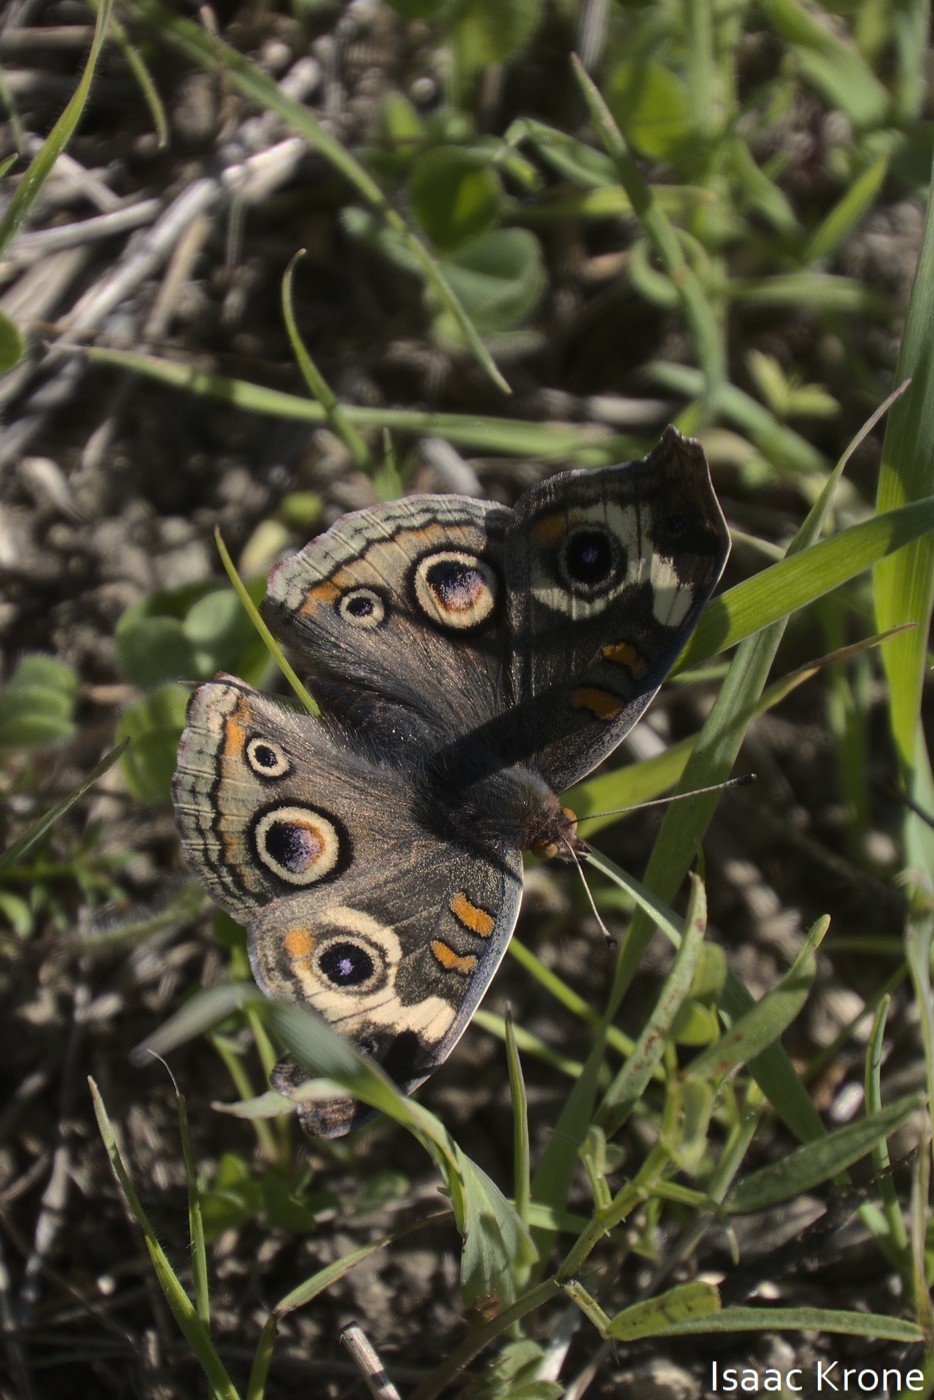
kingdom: Animalia
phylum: Arthropoda
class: Insecta
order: Lepidoptera
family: Nymphalidae
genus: Junonia
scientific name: Junonia grisea
